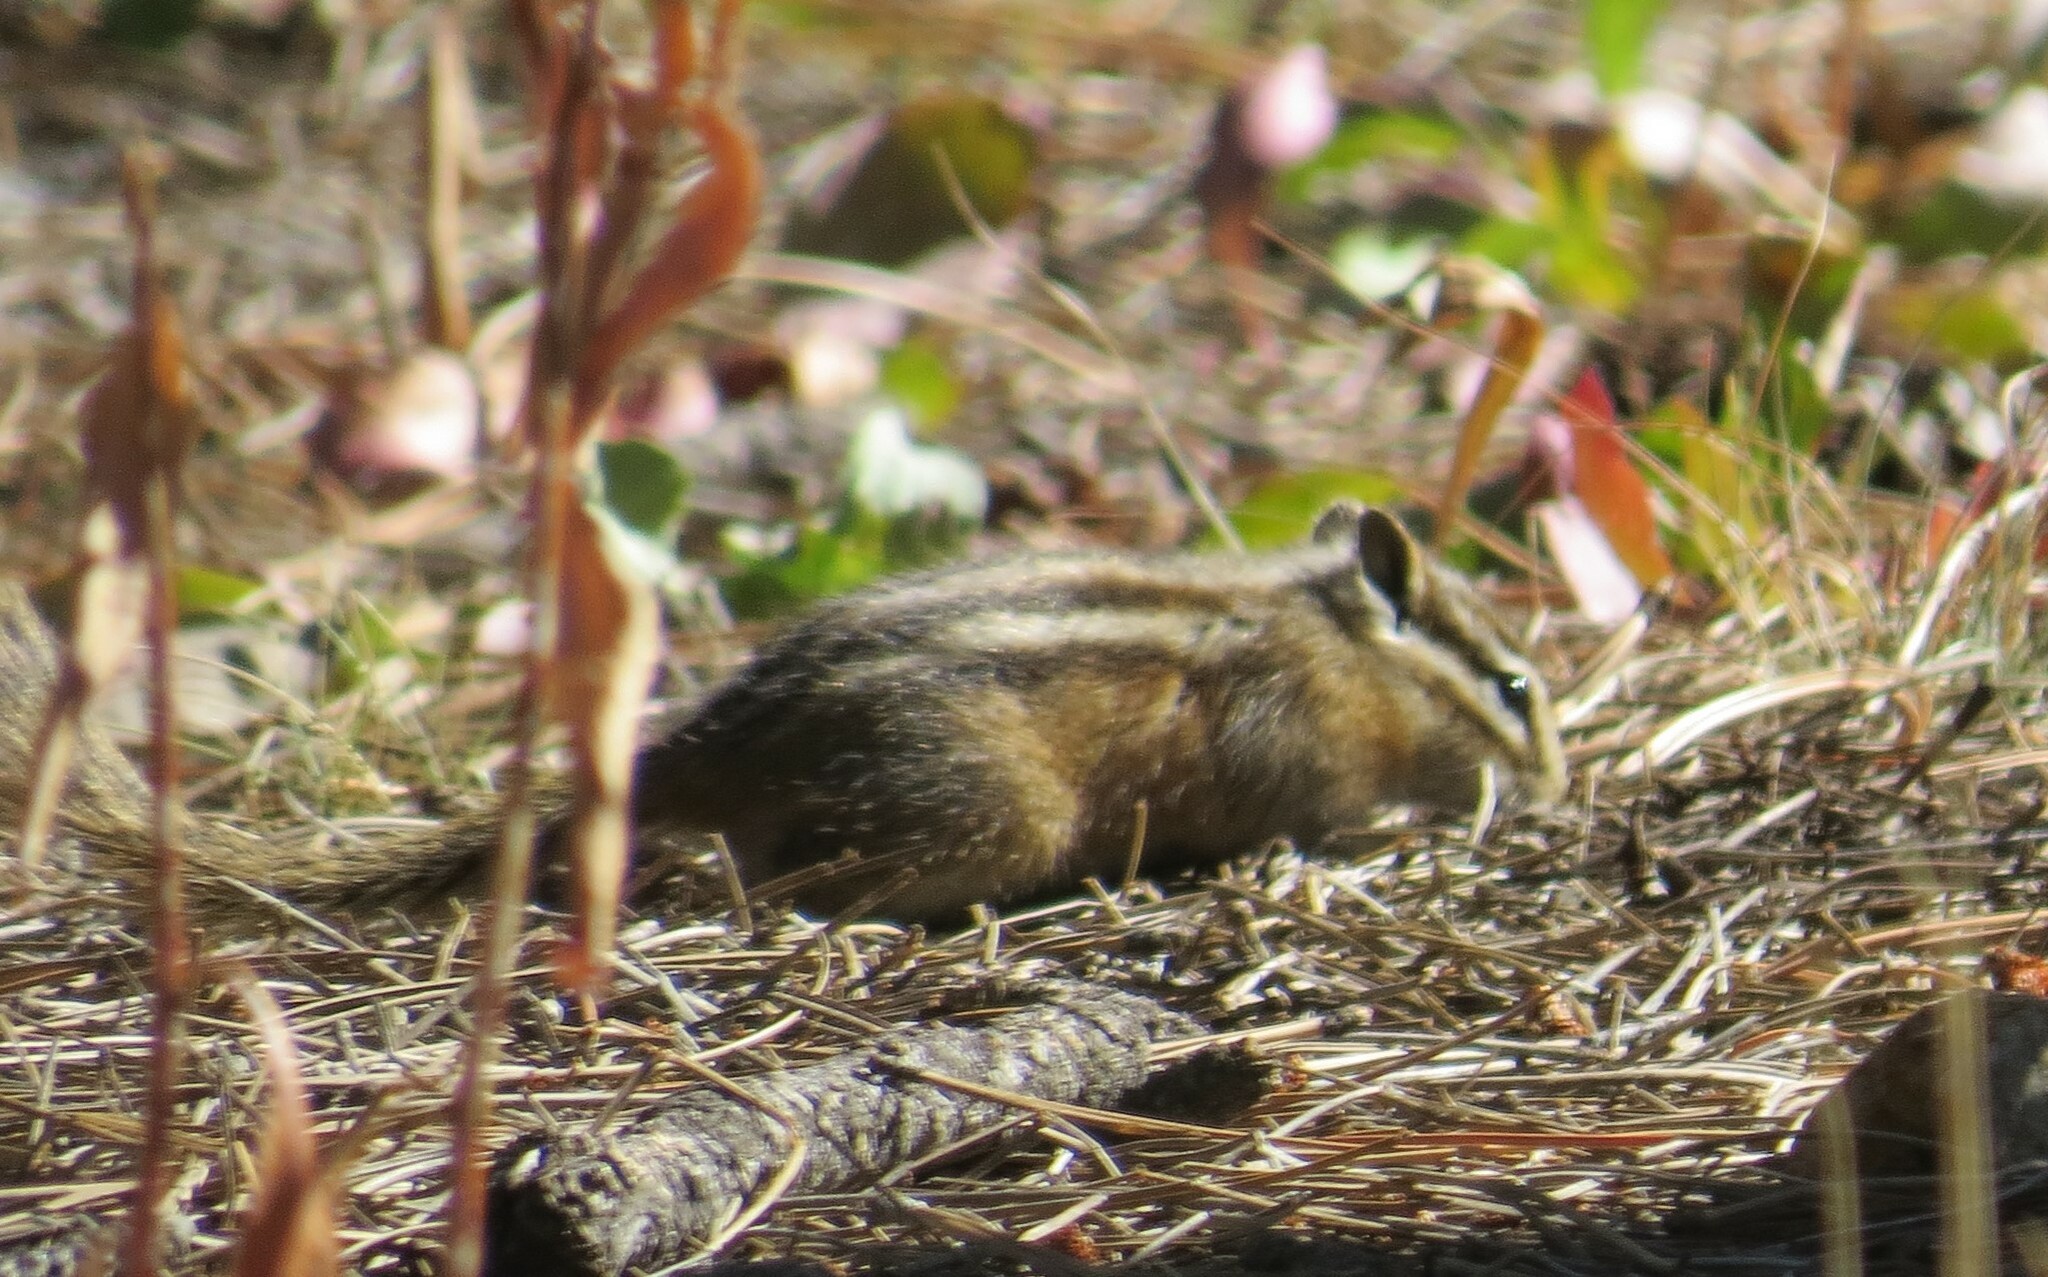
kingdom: Animalia
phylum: Chordata
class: Mammalia
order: Rodentia
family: Sciuridae
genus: Tamias
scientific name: Tamias minimus
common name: Least chipmunk
